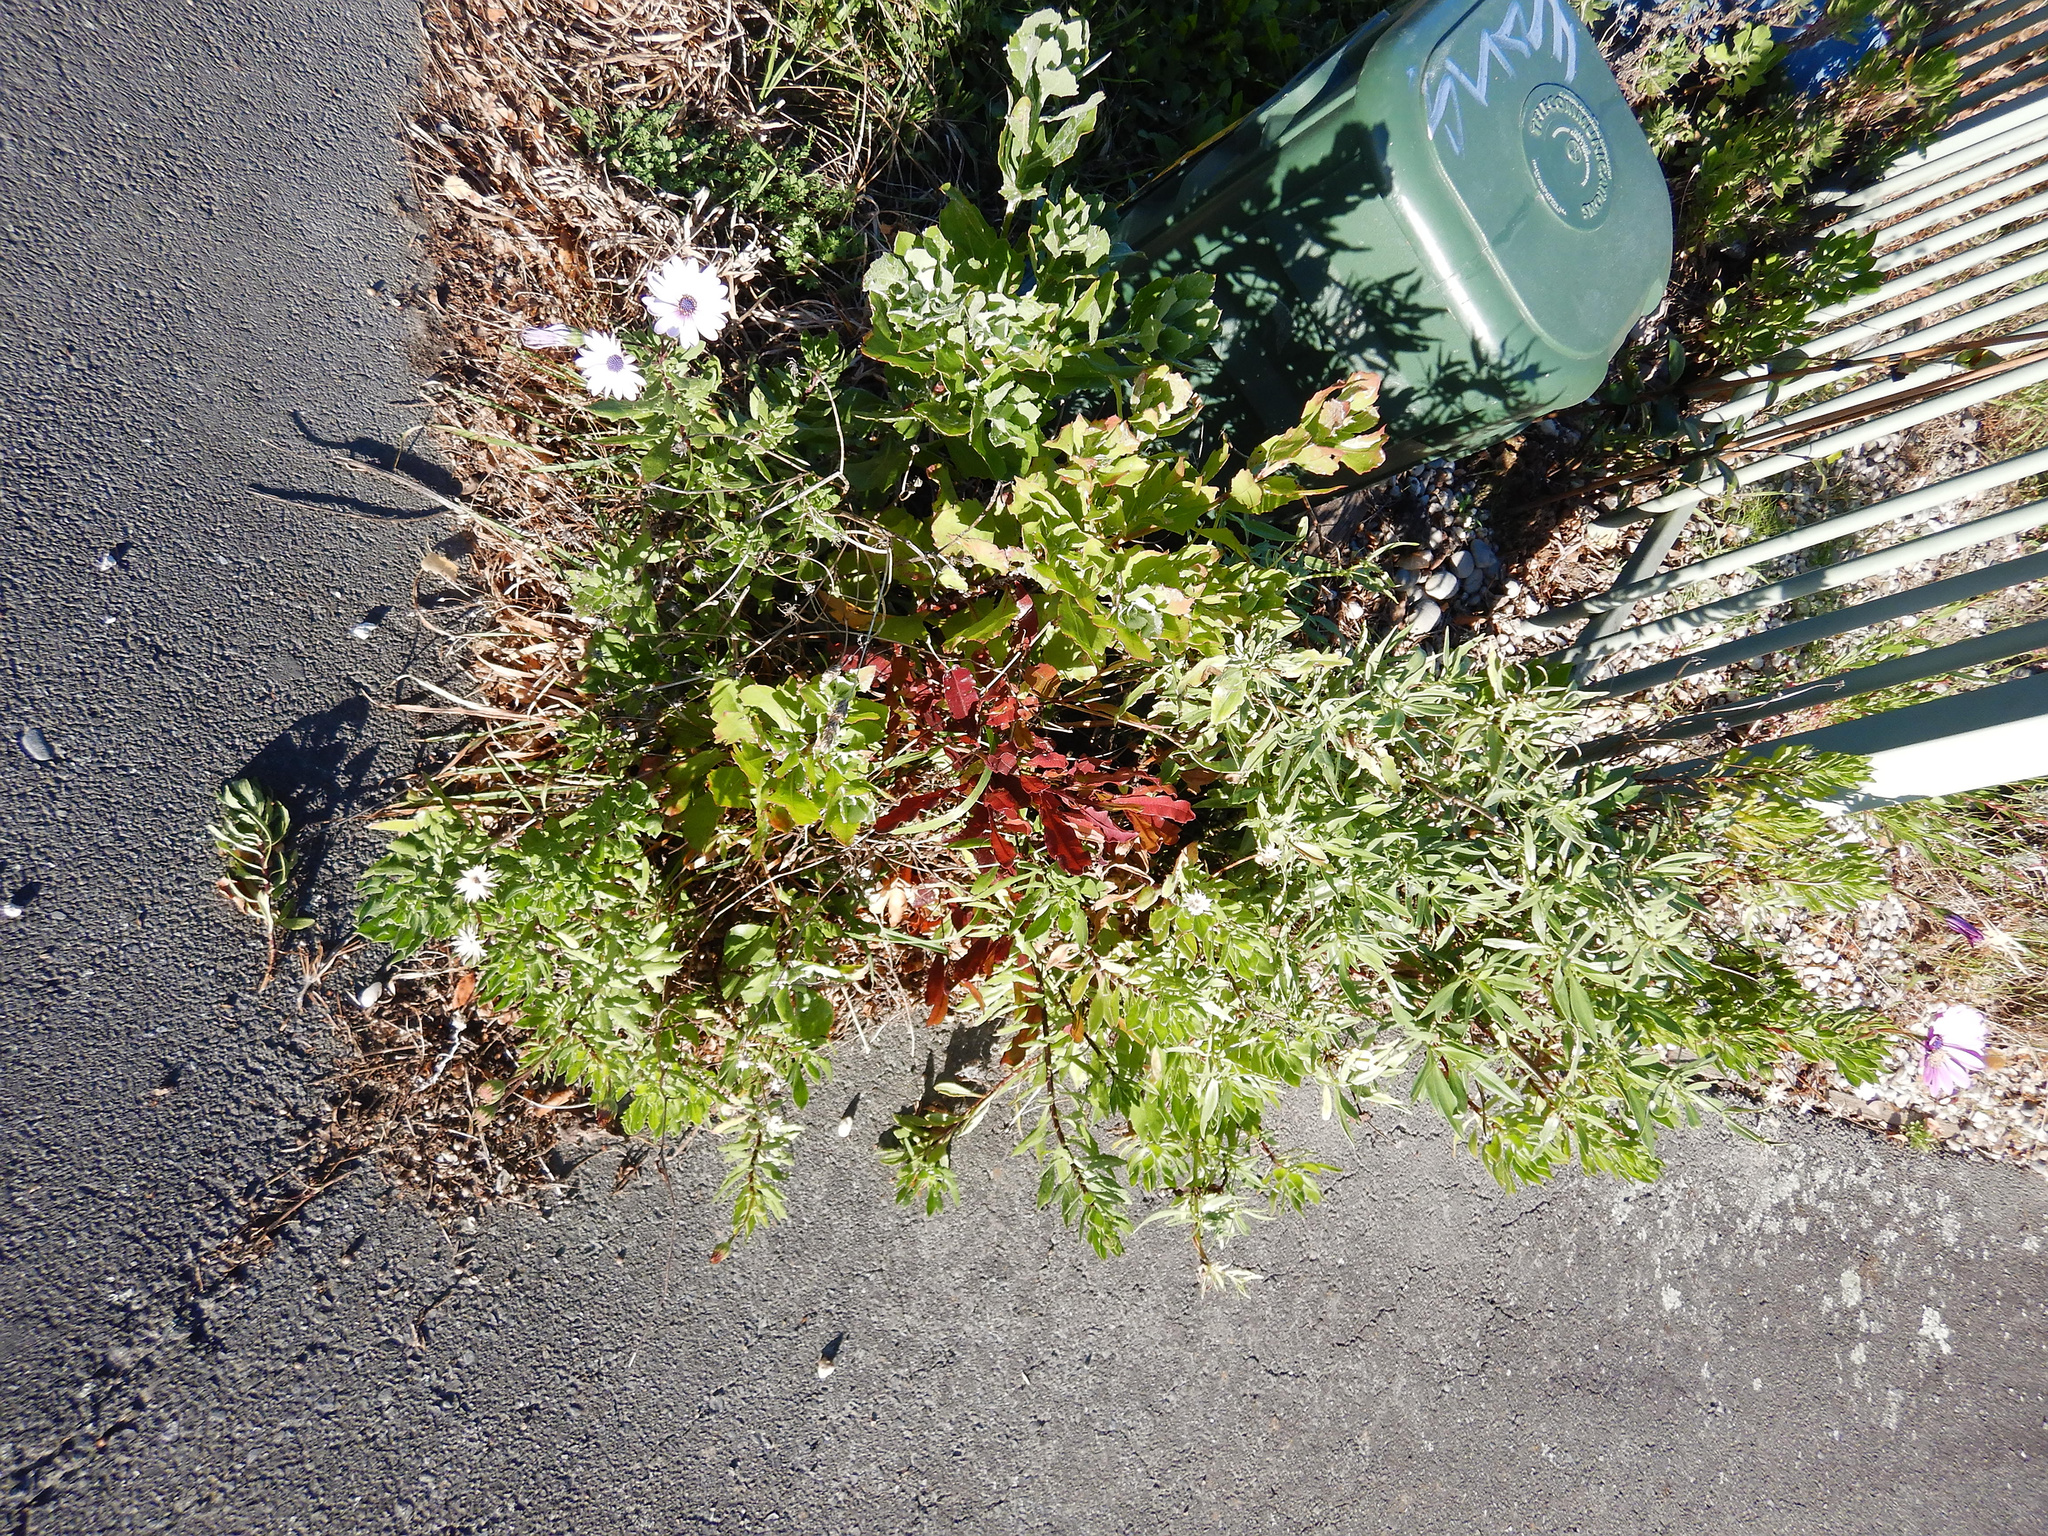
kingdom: Plantae
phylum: Tracheophyta
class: Magnoliopsida
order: Asterales
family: Asteraceae
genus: Osteospermum
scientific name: Osteospermum moniliferum
